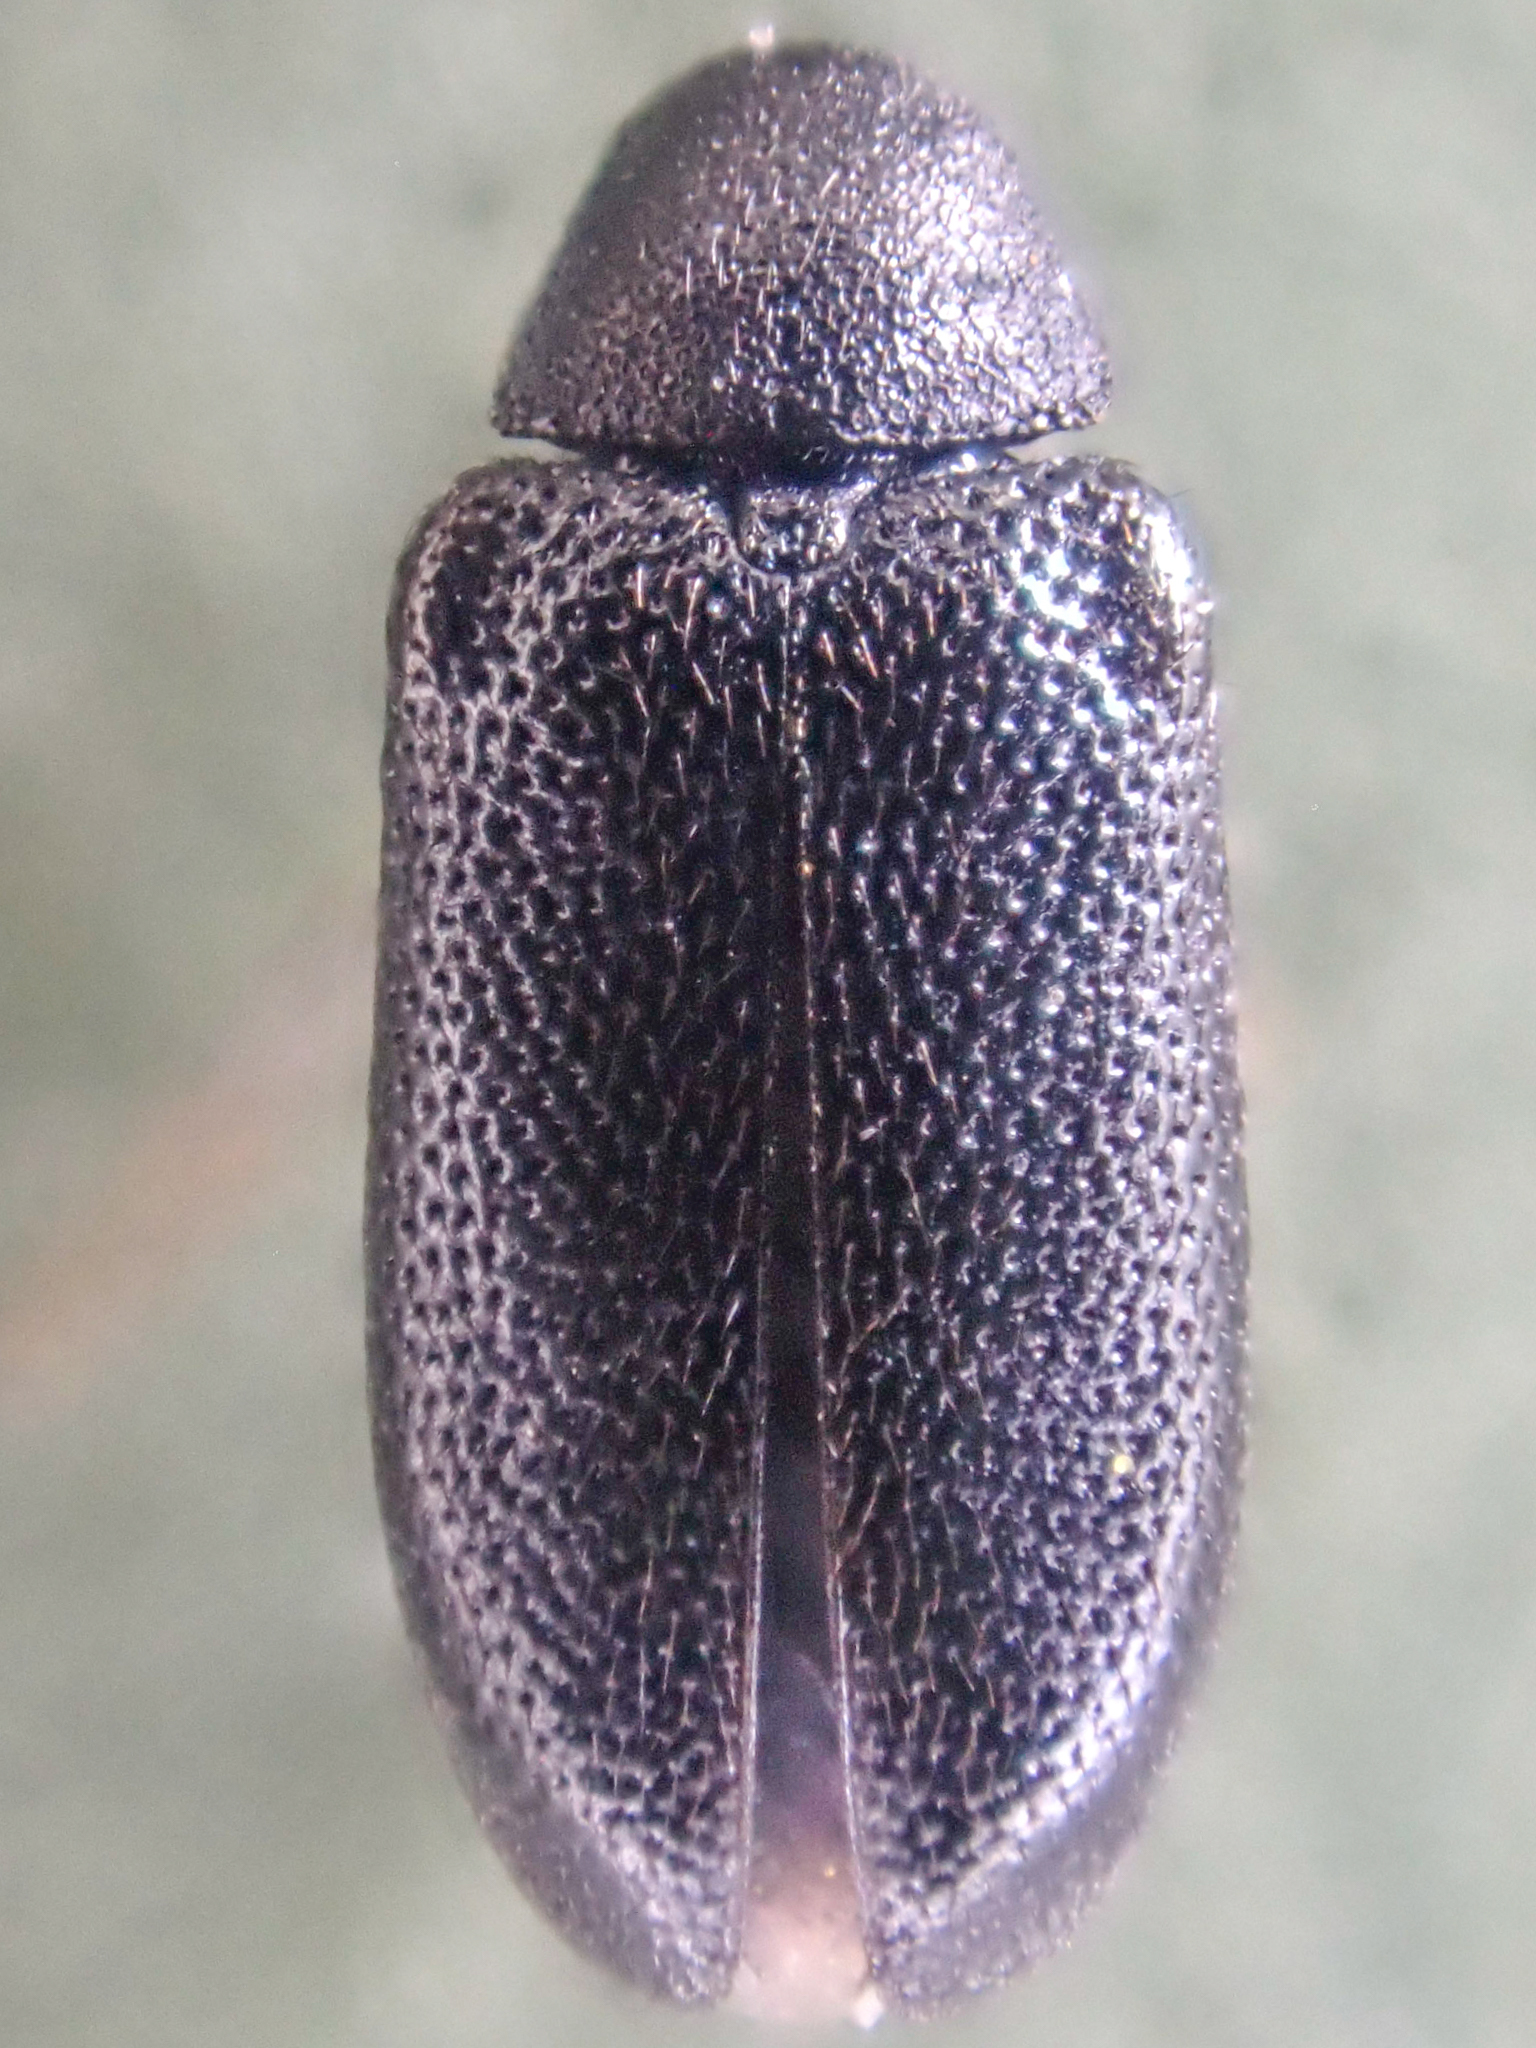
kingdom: Animalia
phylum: Arthropoda
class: Insecta
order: Coleoptera
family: Melyridae
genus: Semijulistus
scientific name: Semijulistus ater
